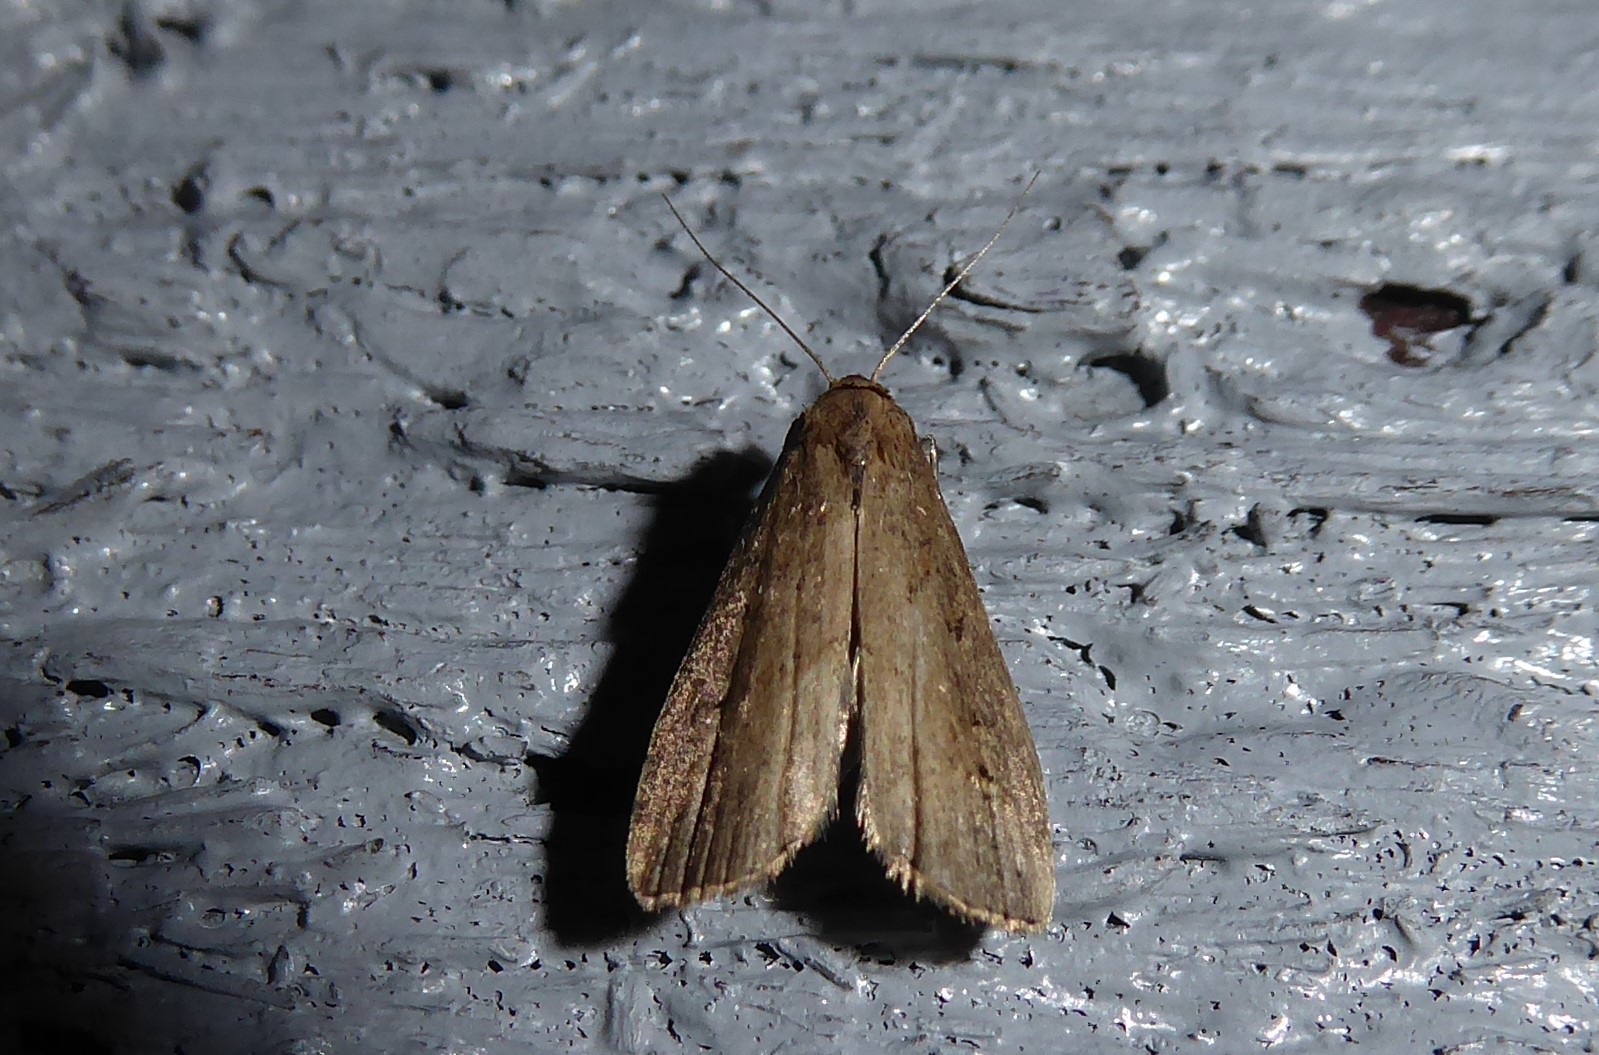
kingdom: Animalia
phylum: Arthropoda
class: Insecta
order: Lepidoptera
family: Erebidae
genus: Schrankia
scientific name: Schrankia costaestrigalis
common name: Pinion-streaked snout
